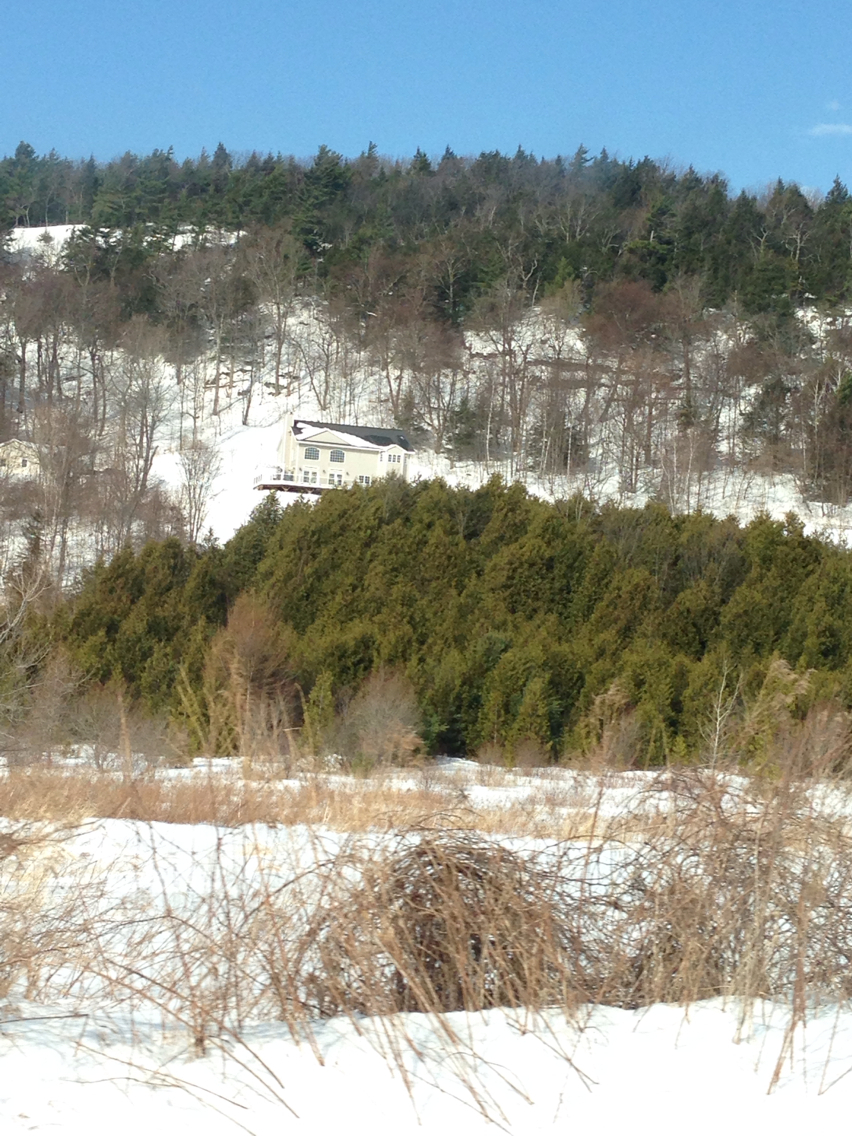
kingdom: Plantae
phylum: Tracheophyta
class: Pinopsida
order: Pinales
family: Cupressaceae
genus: Thuja
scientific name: Thuja occidentalis
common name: Northern white-cedar
